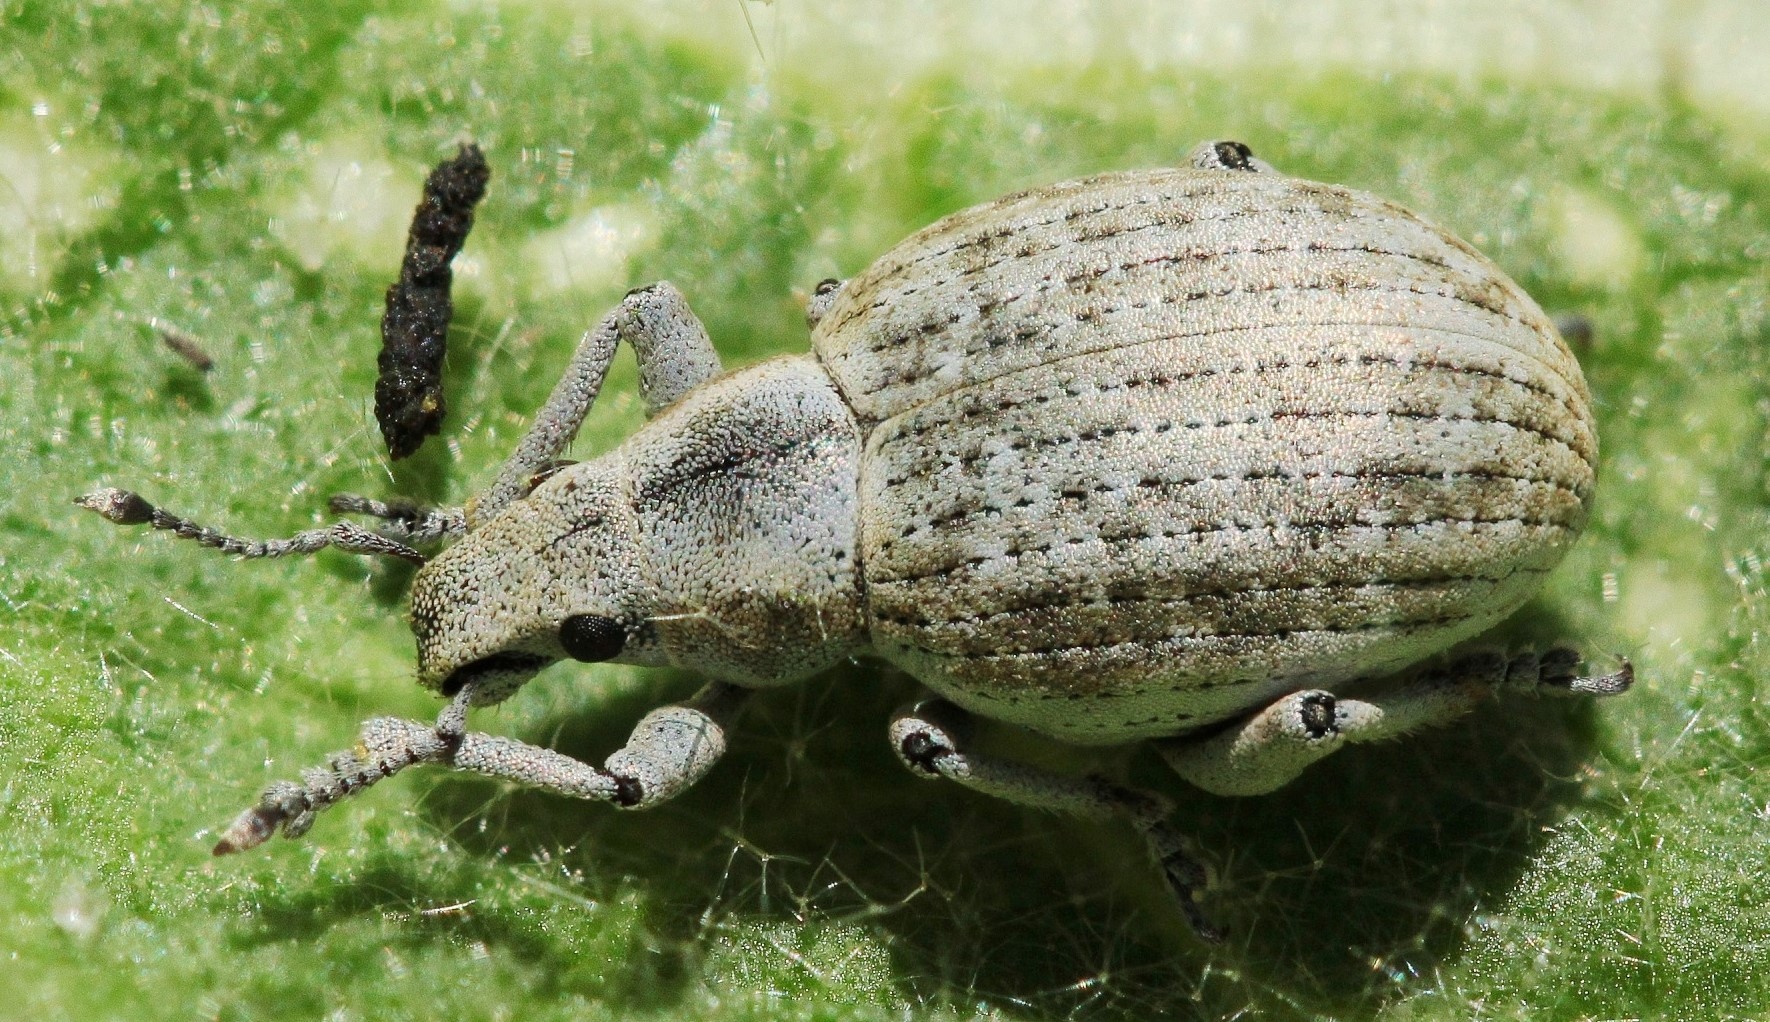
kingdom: Animalia
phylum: Arthropoda
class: Insecta
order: Coleoptera
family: Curculionidae
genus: Attactagenus
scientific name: Attactagenus albinus
